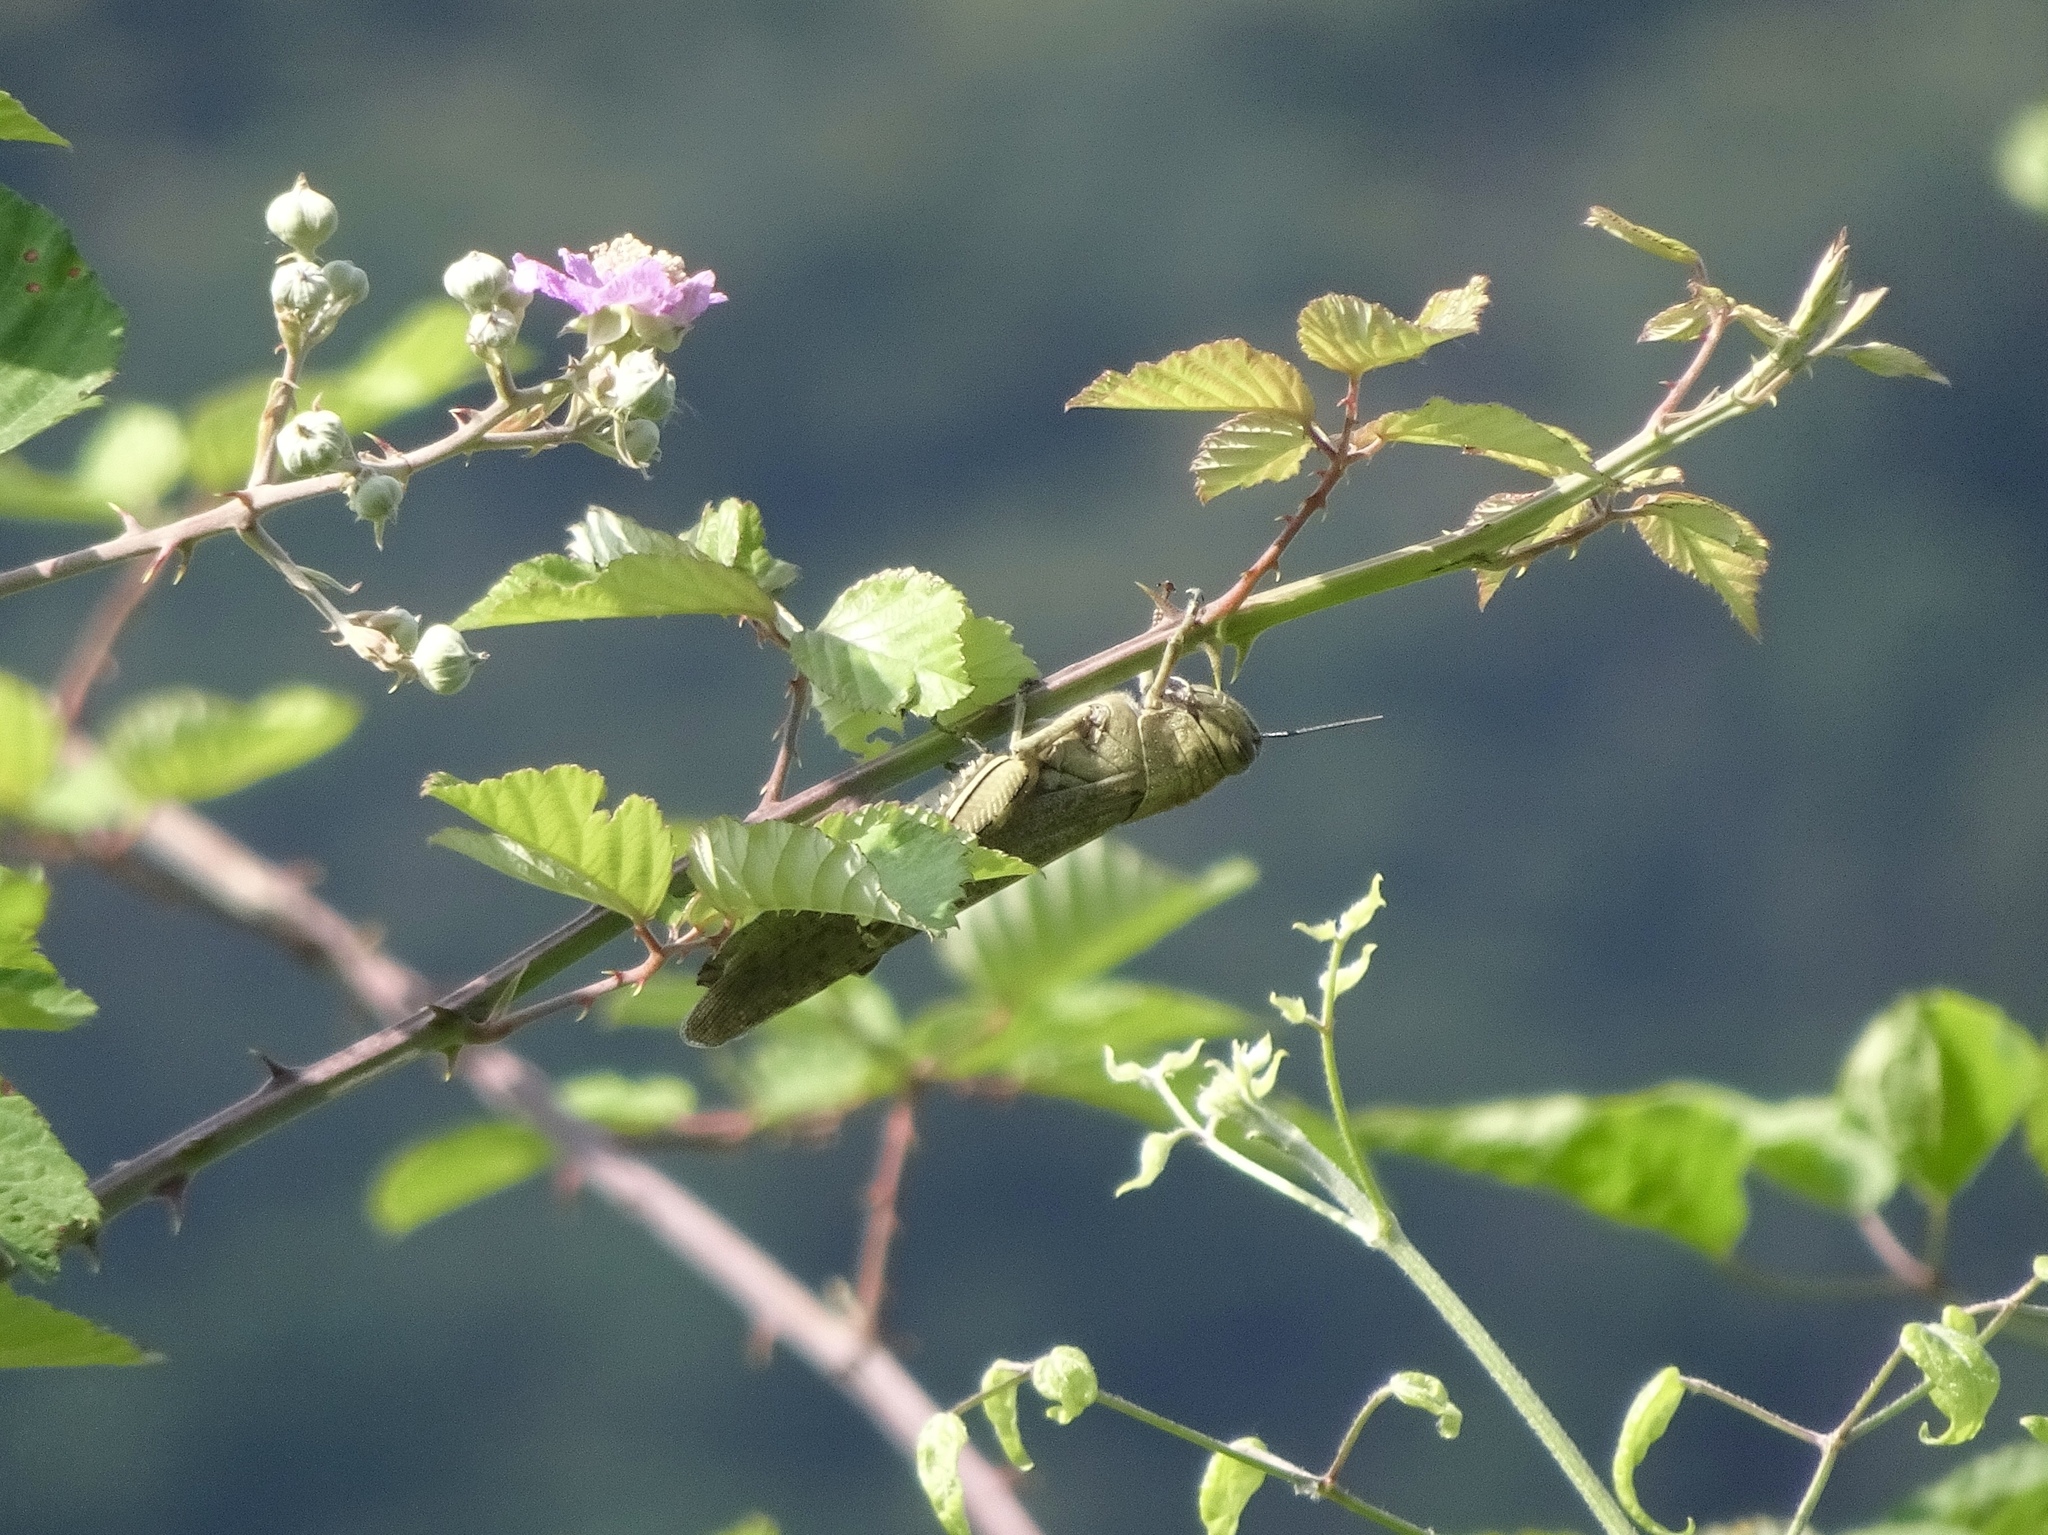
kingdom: Animalia
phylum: Arthropoda
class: Insecta
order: Orthoptera
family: Acrididae
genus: Anacridium
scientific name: Anacridium aegyptium
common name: Egyptian grasshopper
